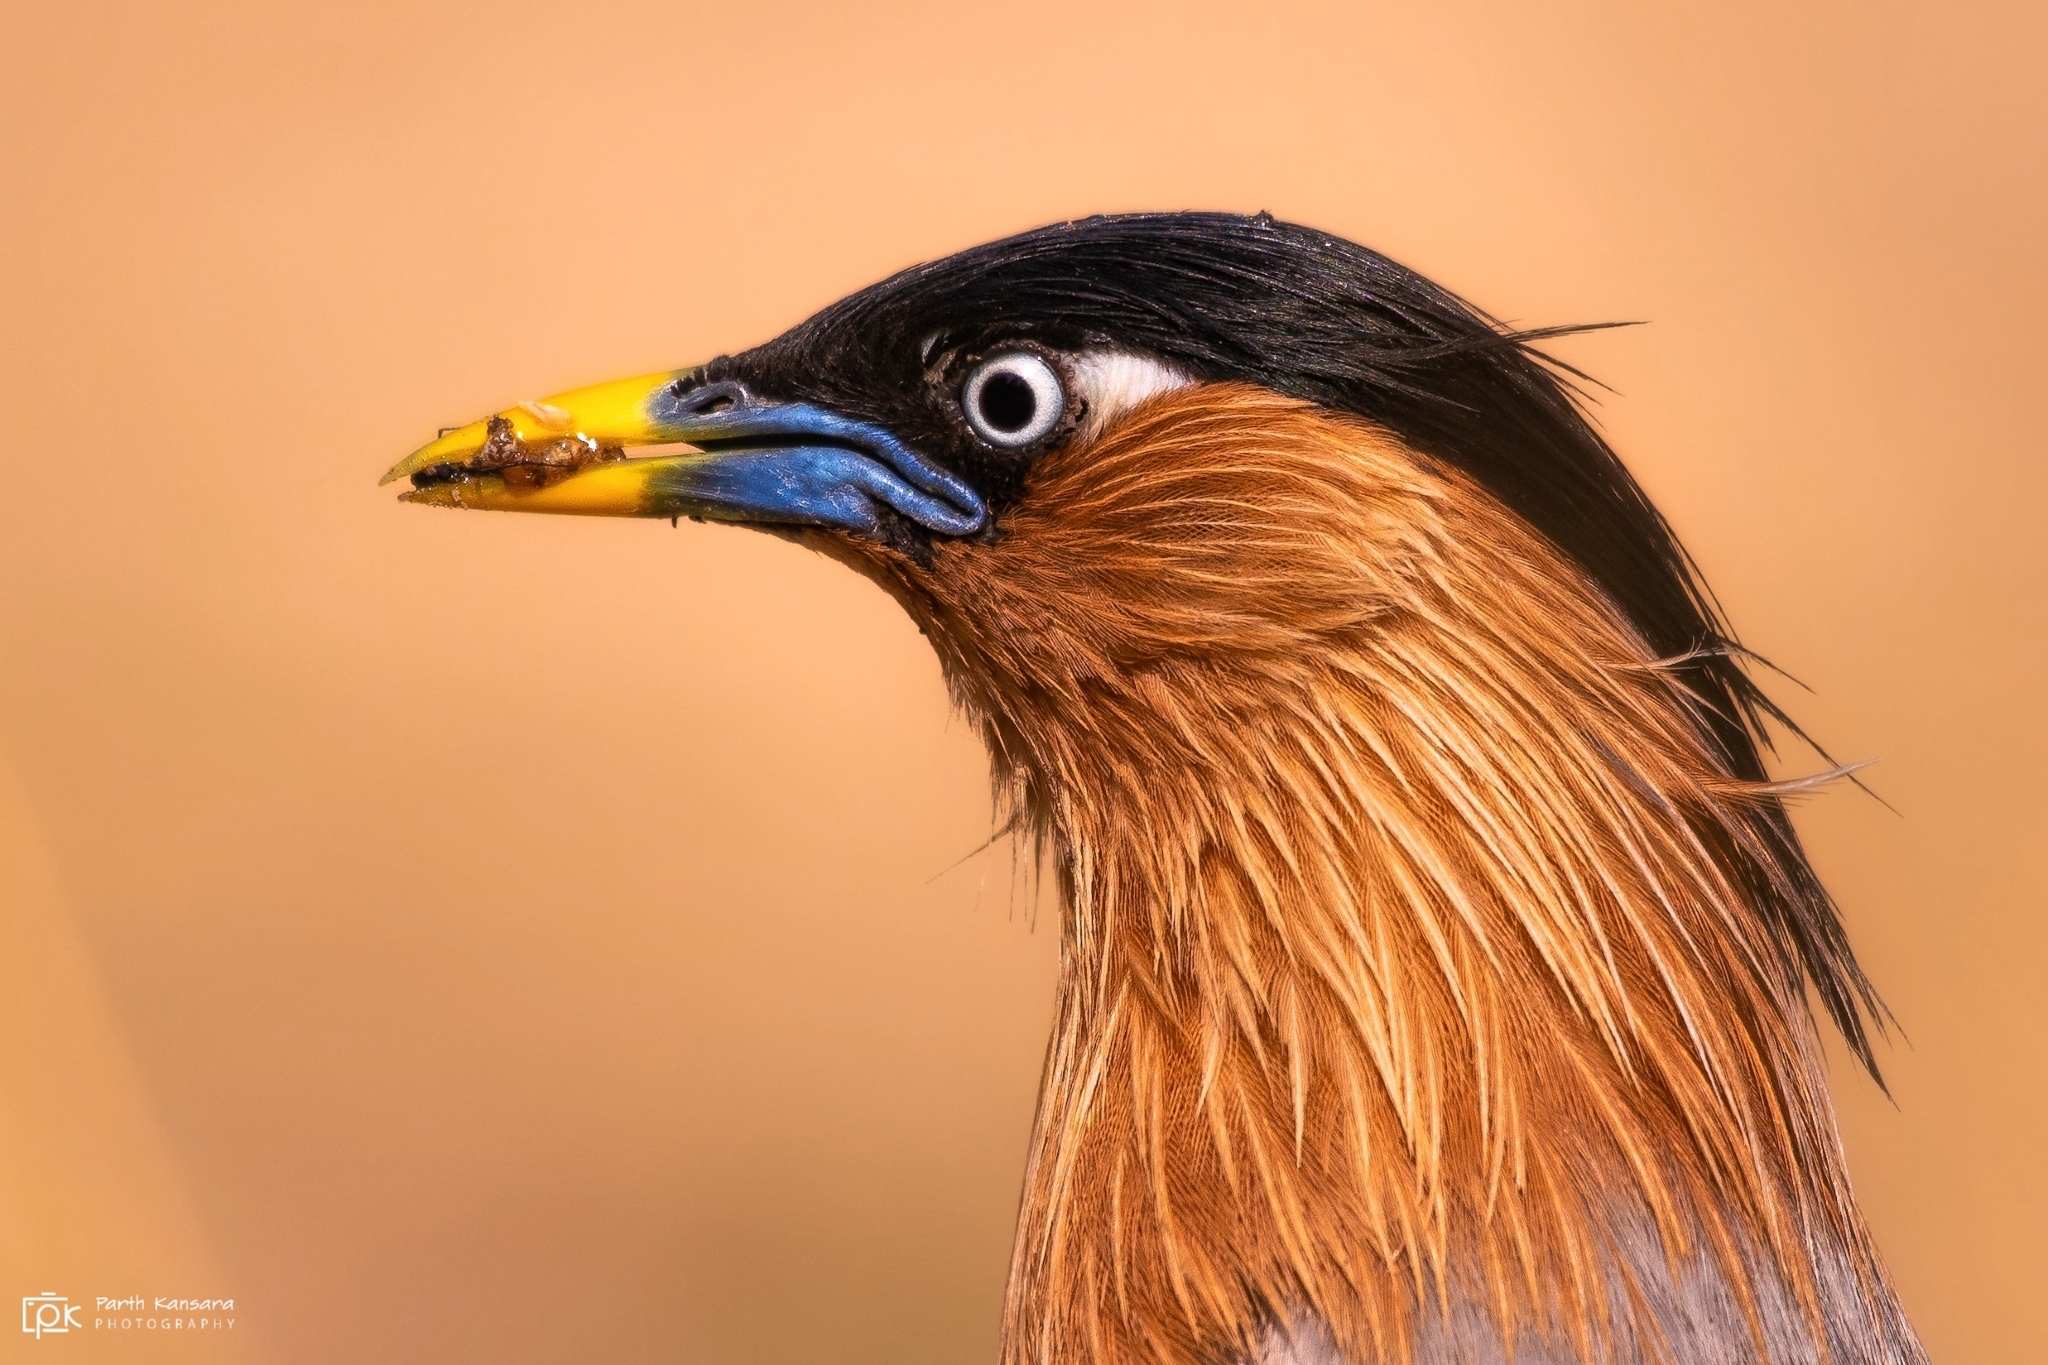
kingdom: Animalia
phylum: Chordata
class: Aves
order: Passeriformes
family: Sturnidae
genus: Sturnia
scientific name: Sturnia pagodarum
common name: Brahminy starling
